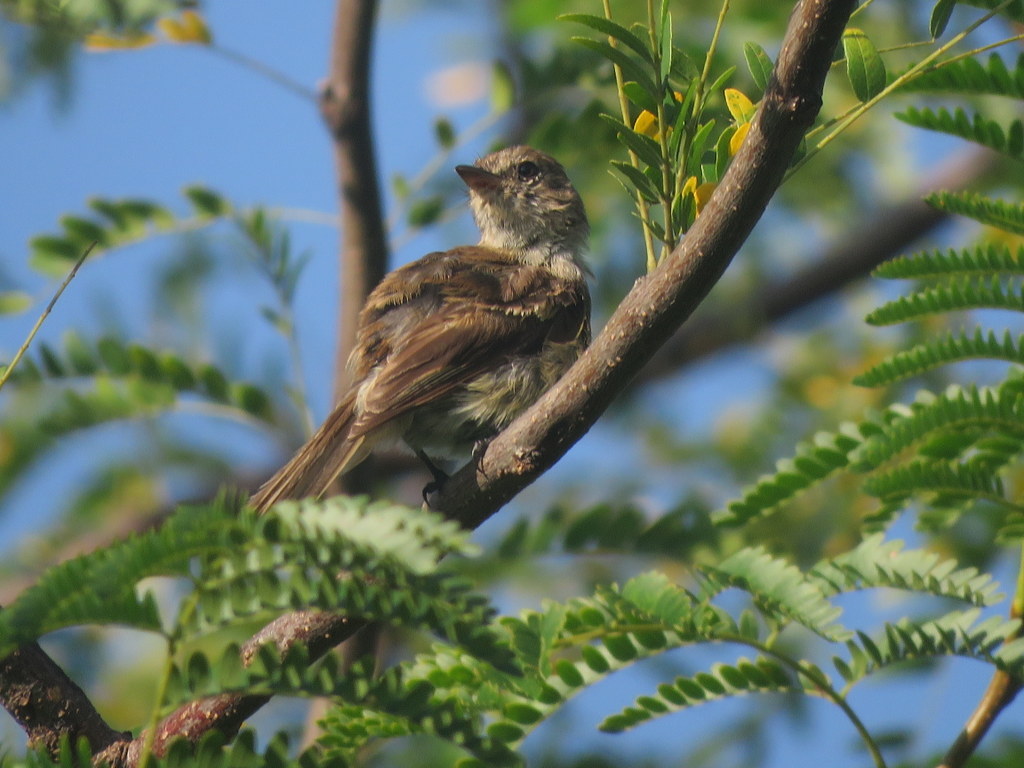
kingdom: Animalia
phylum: Chordata
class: Aves
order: Passeriformes
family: Tyrannidae
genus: Myiophobus
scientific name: Myiophobus fasciatus
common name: Bran-colored flycatcher
